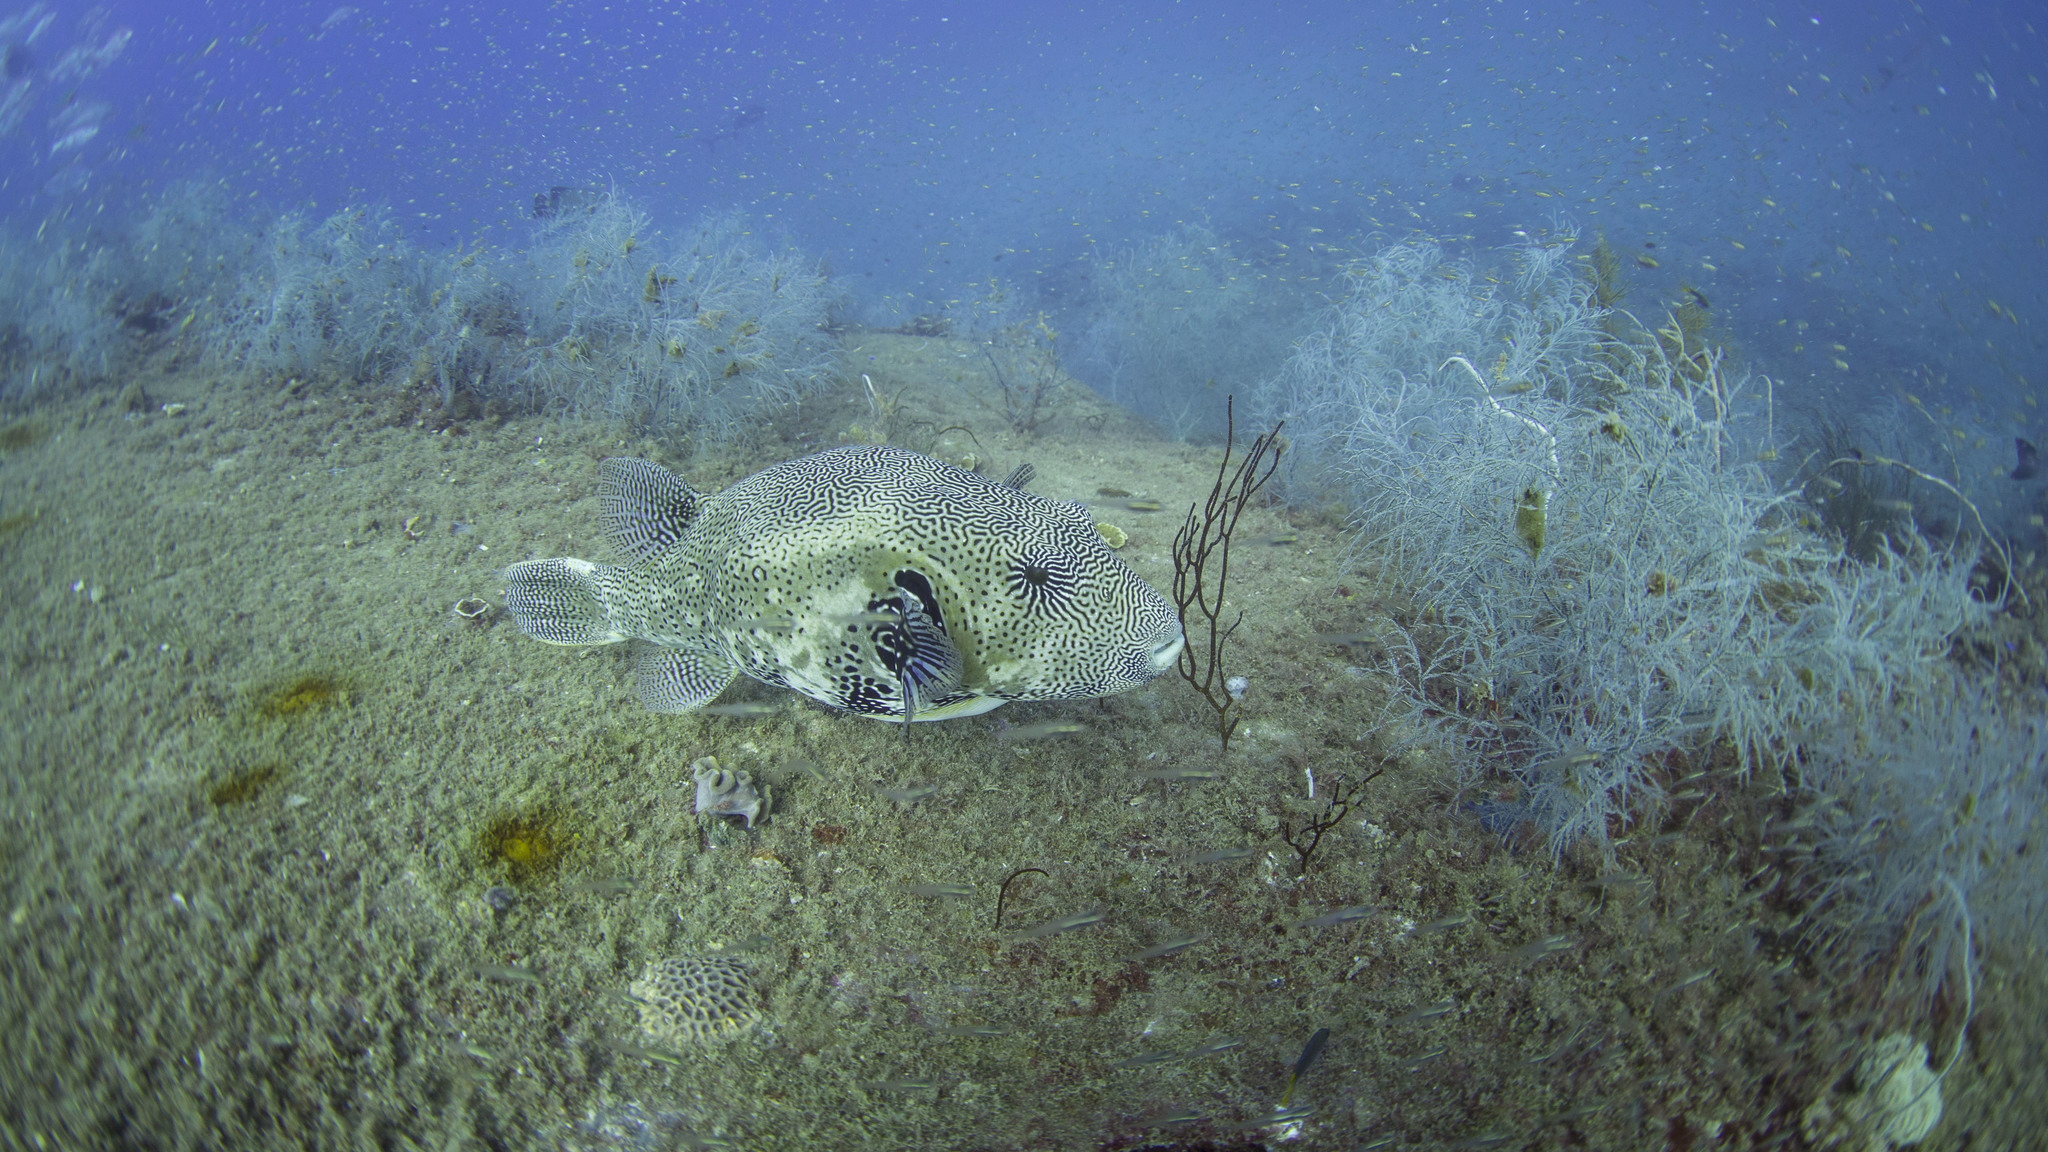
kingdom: Animalia
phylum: Chordata
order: Tetraodontiformes
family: Tetraodontidae
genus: Arothron
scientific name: Arothron mappa
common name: Map blaasop
